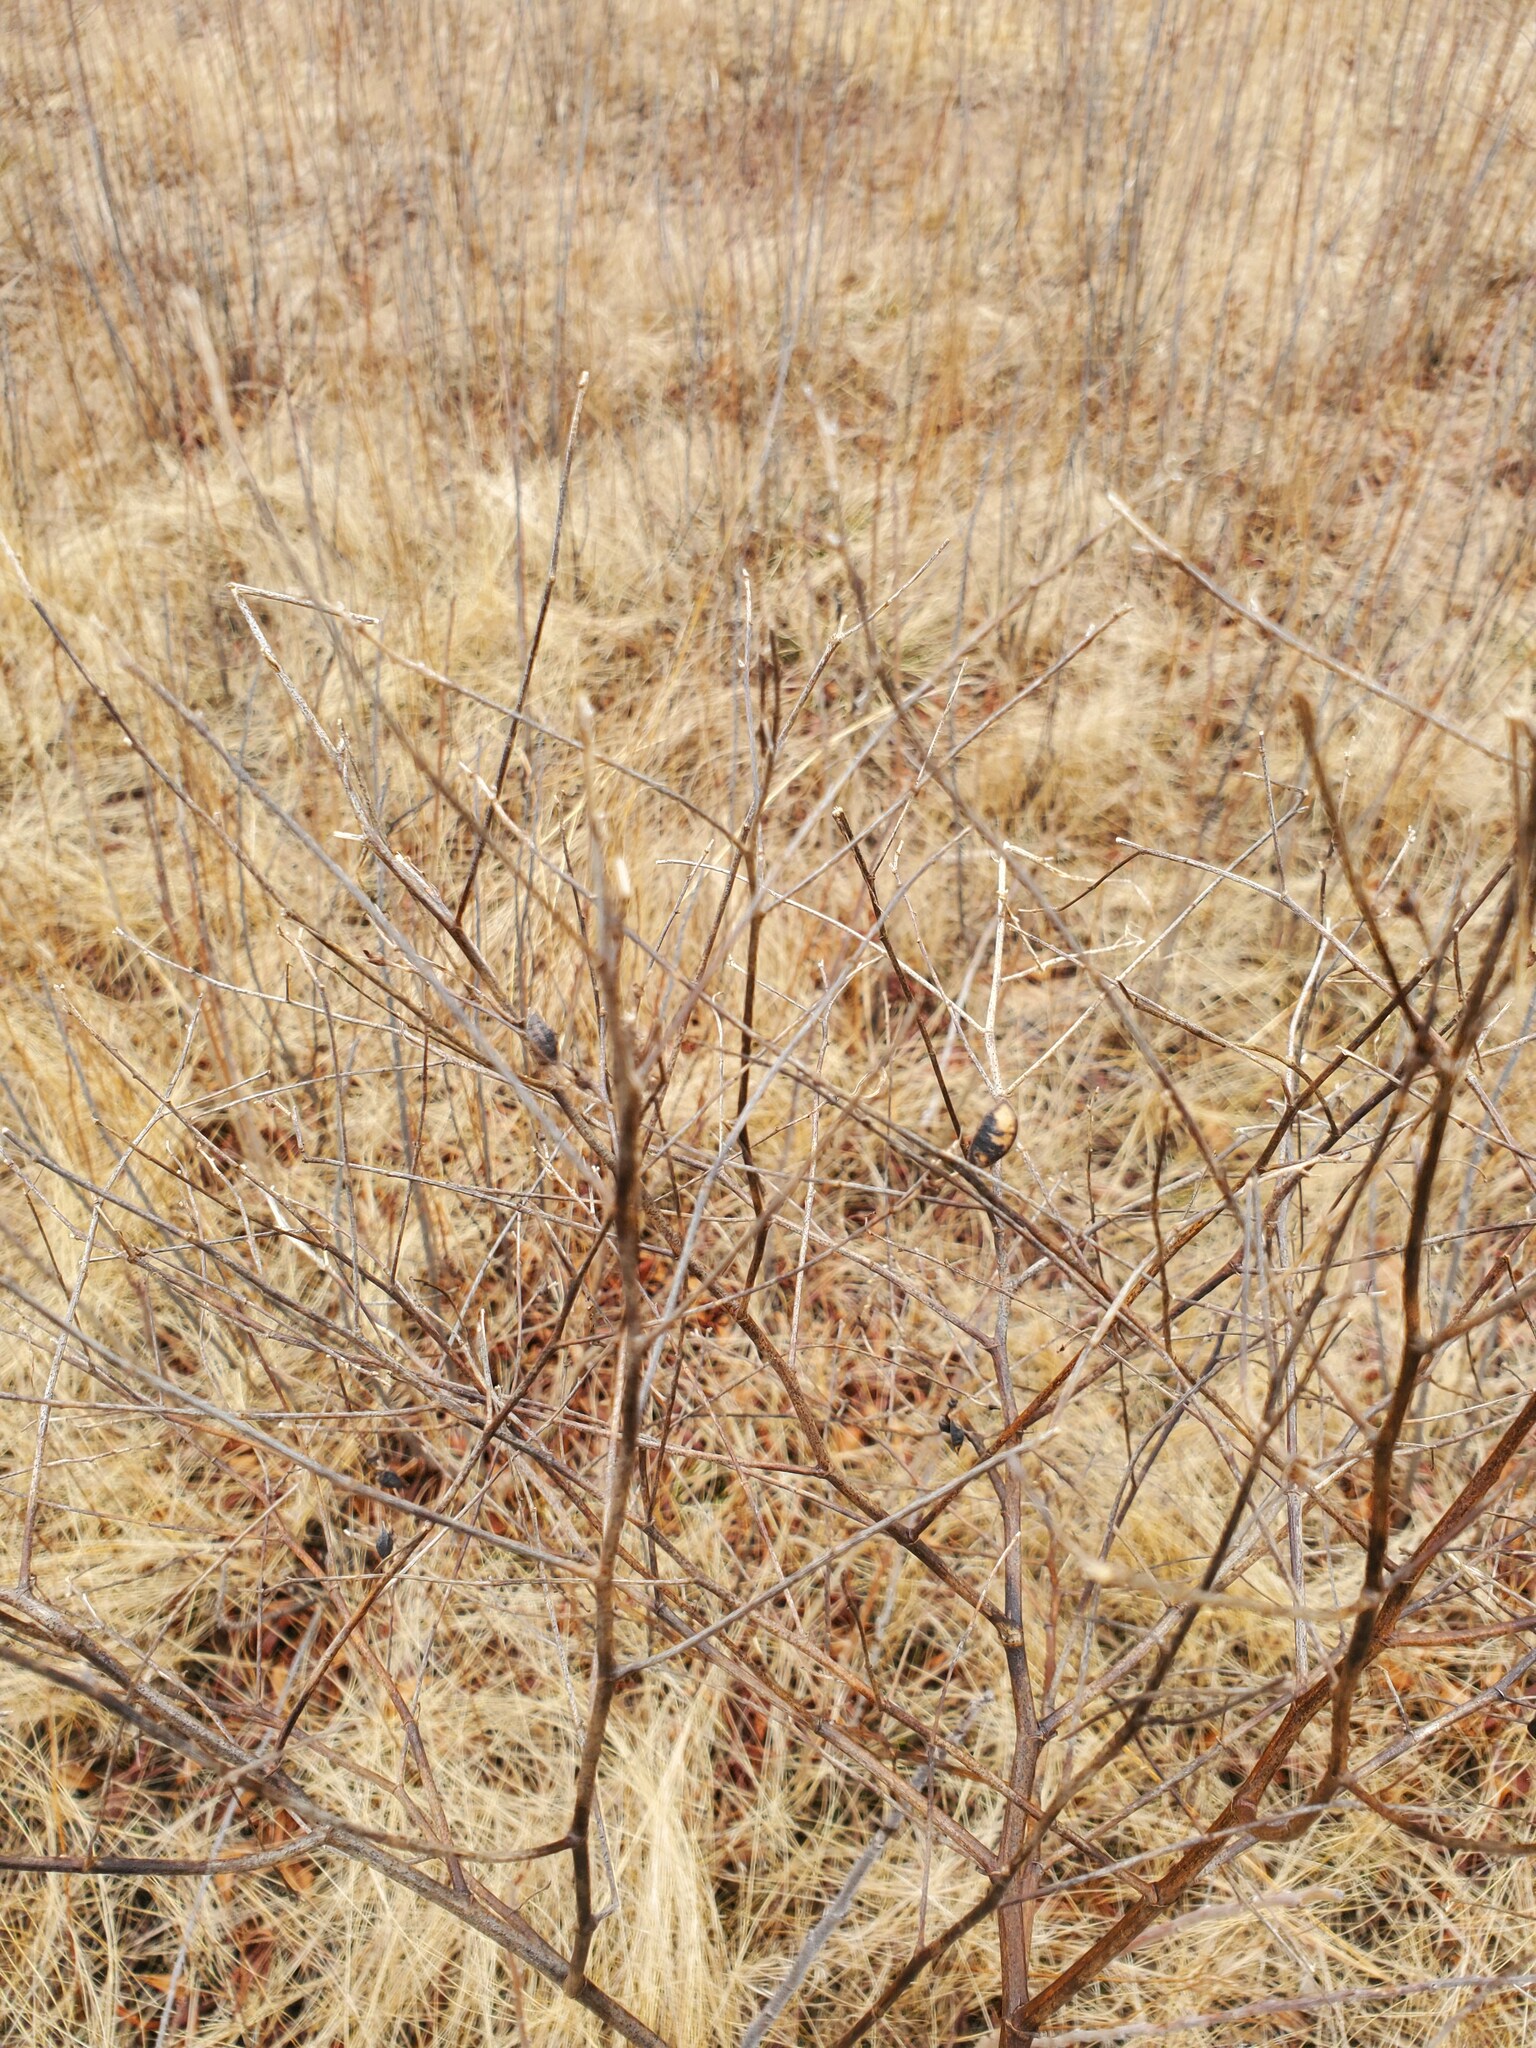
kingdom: Plantae
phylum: Tracheophyta
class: Magnoliopsida
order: Fabales
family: Fabaceae
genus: Baptisia
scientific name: Baptisia tinctoria
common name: Wild indigo
